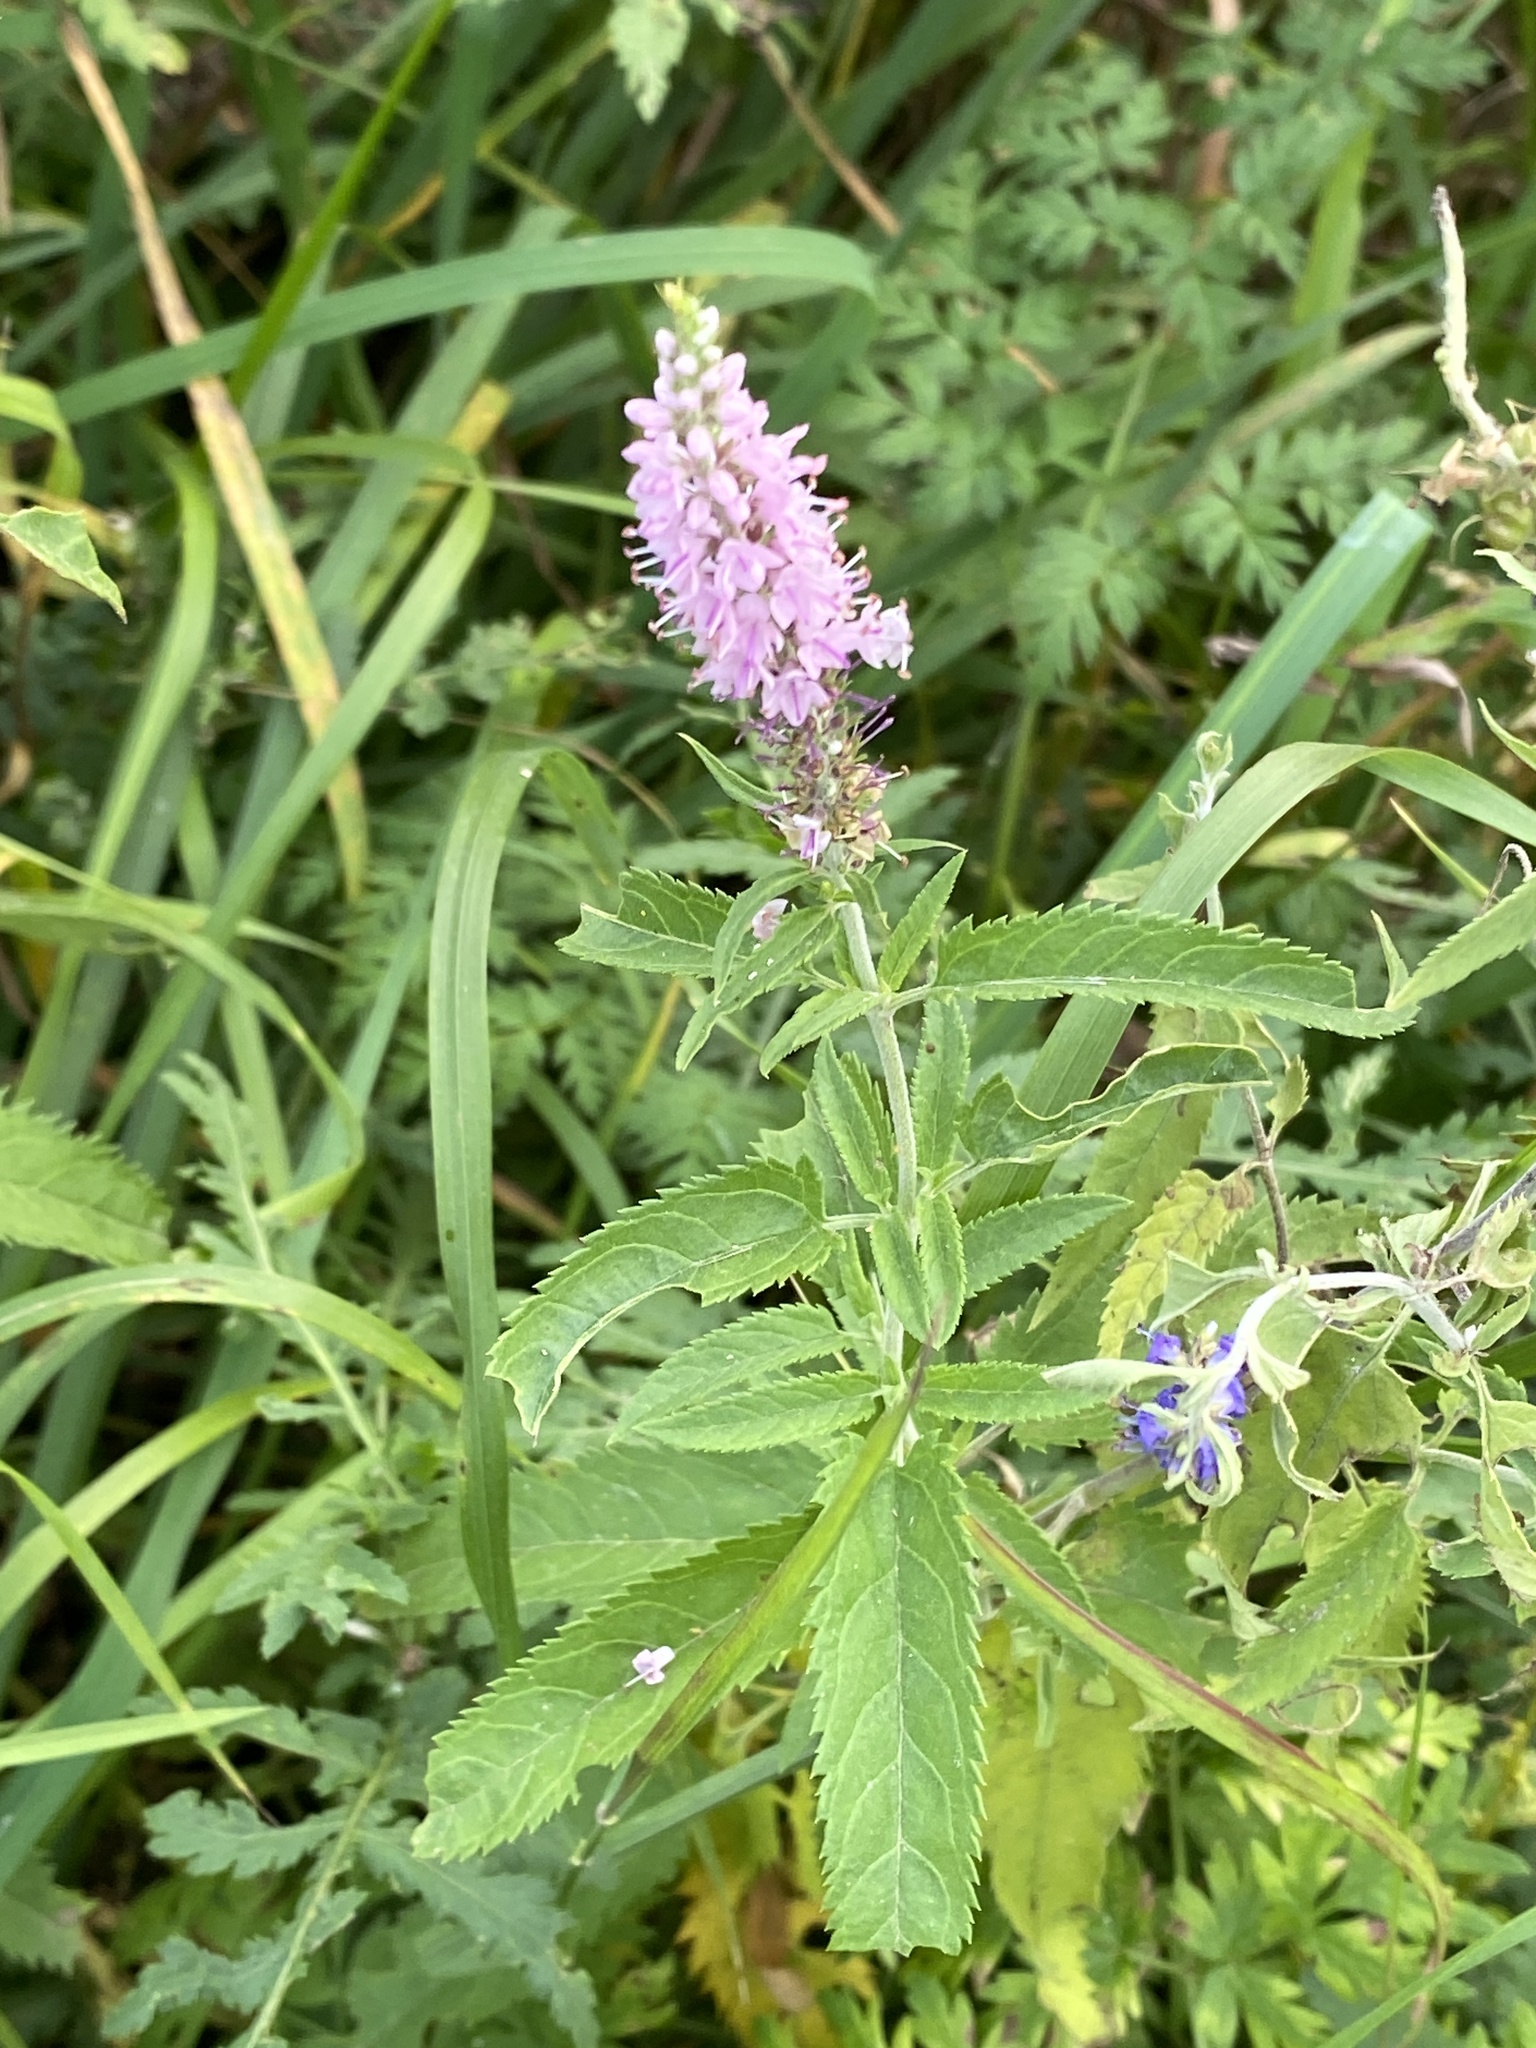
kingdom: Plantae
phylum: Tracheophyta
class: Magnoliopsida
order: Lamiales
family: Plantaginaceae
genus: Veronica
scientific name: Veronica longifolia
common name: Garden speedwell
